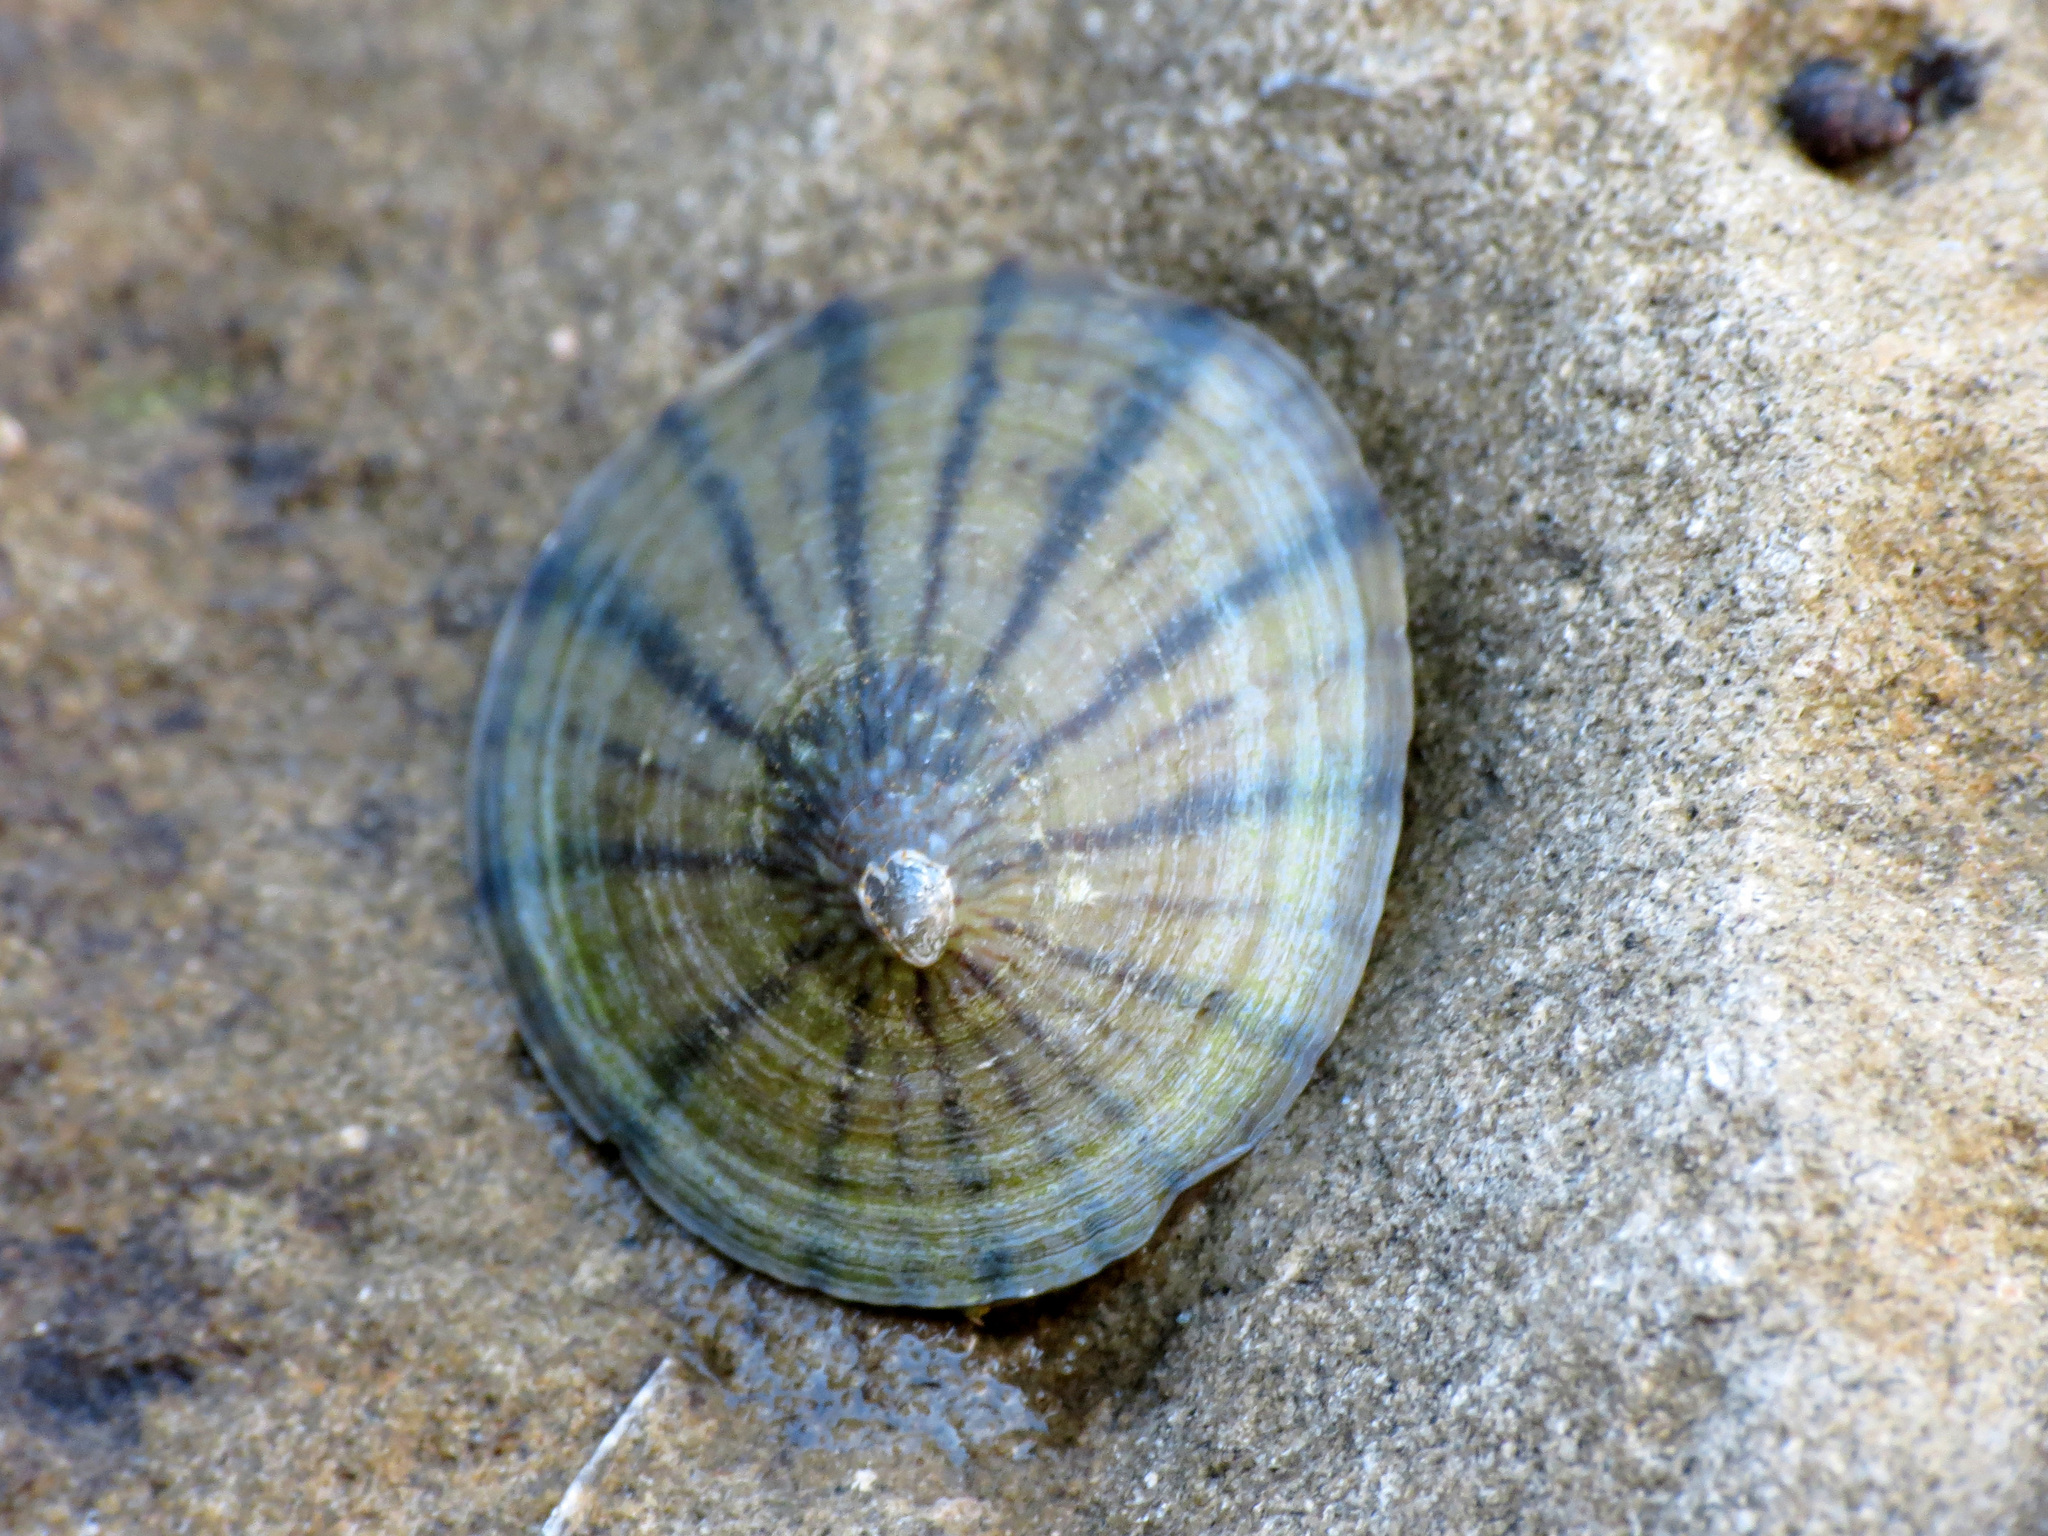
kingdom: Animalia
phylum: Mollusca
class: Gastropoda
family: Nacellidae
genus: Cellana
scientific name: Cellana radians
